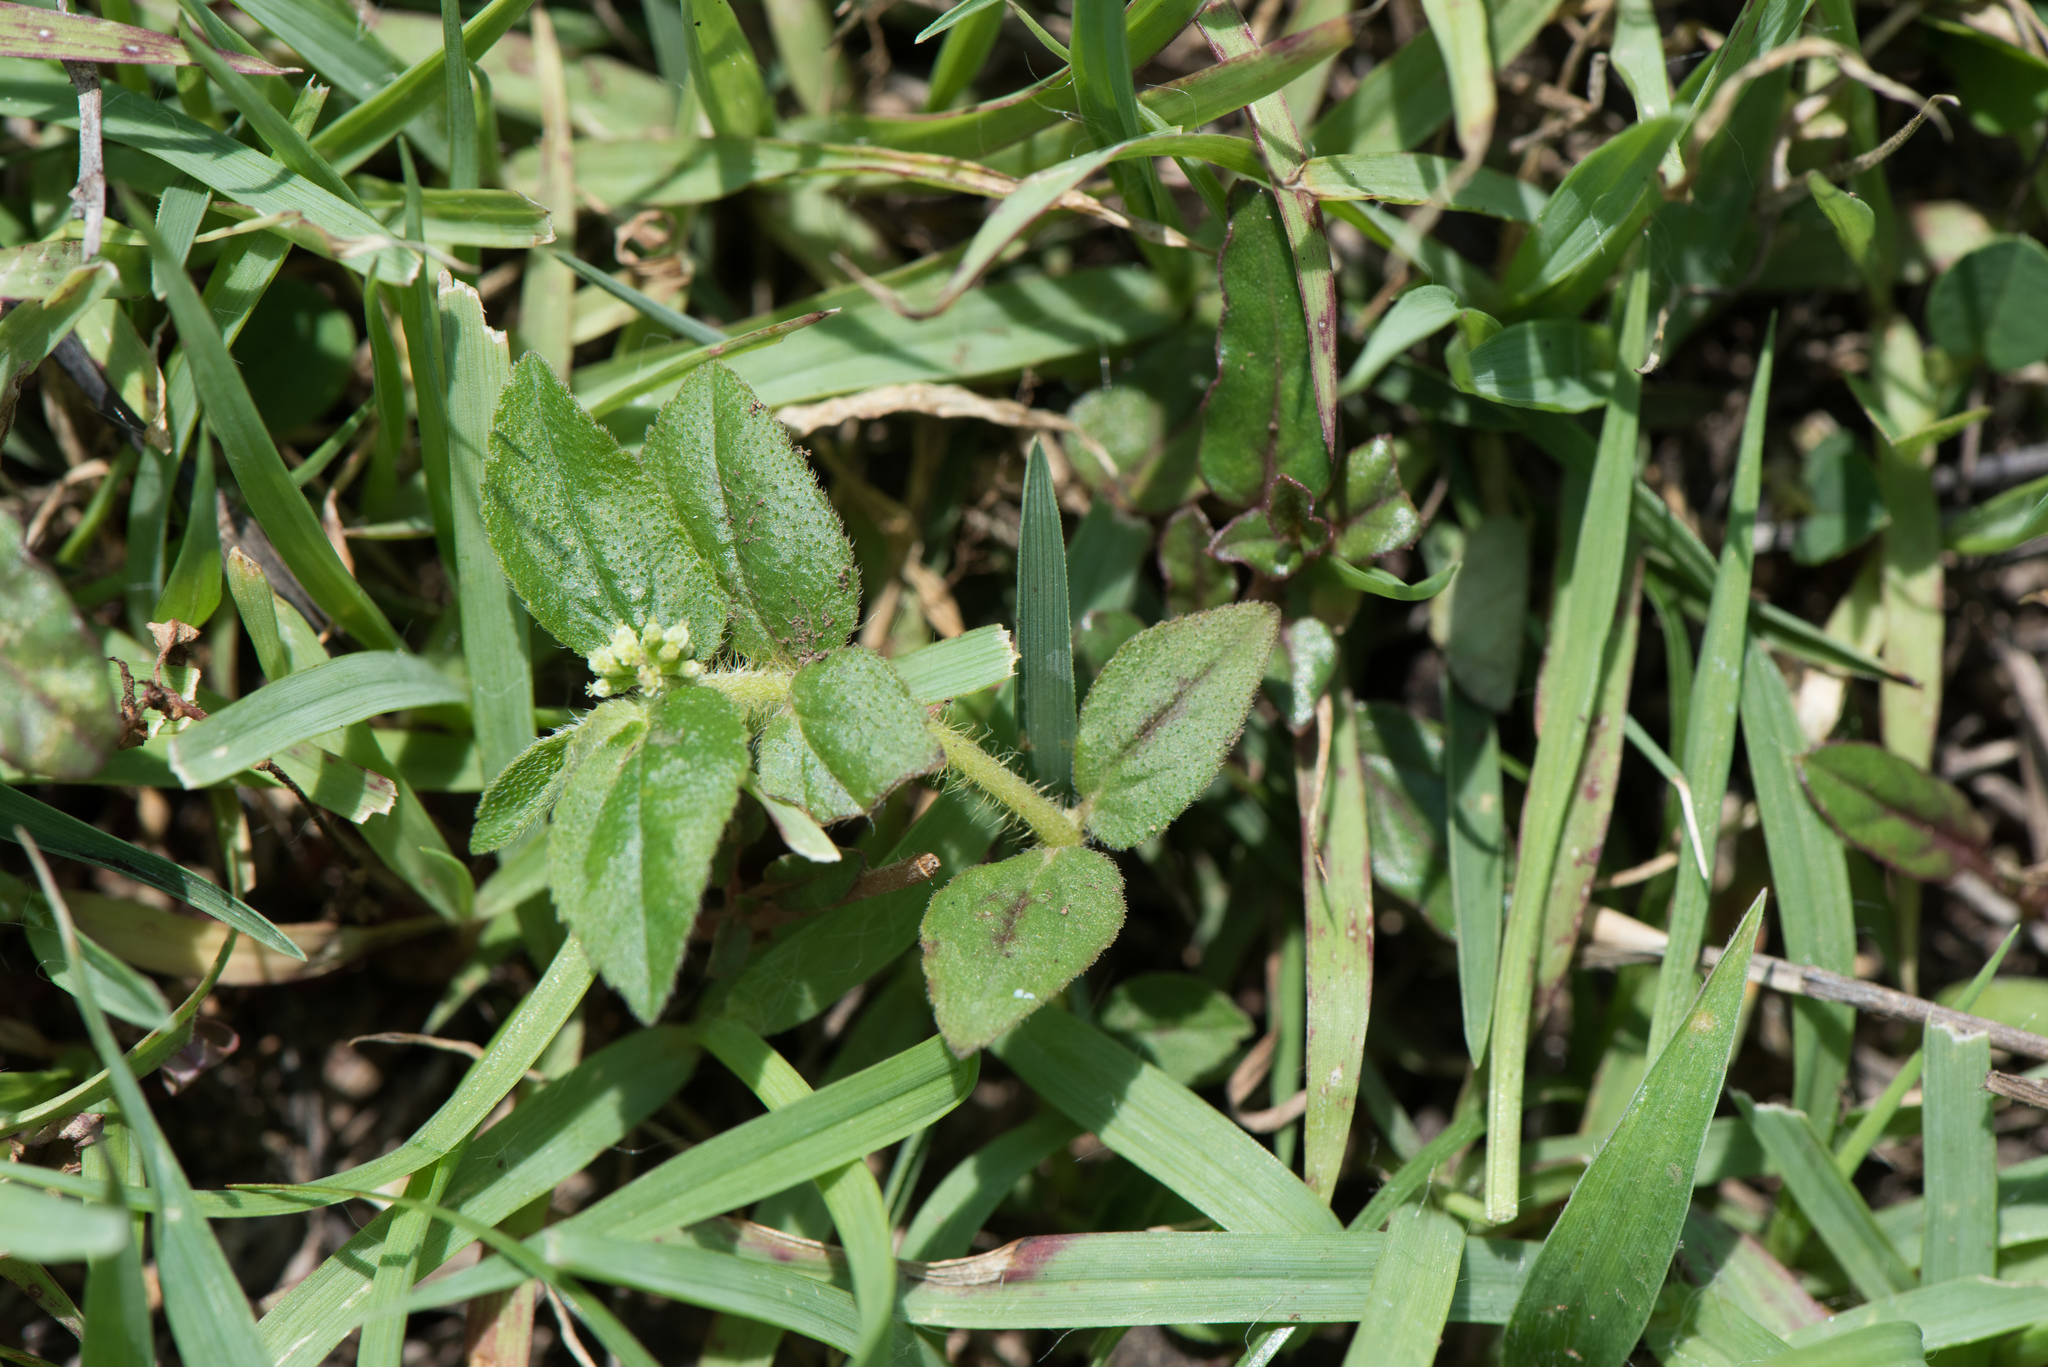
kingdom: Plantae
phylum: Tracheophyta
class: Magnoliopsida
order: Malpighiales
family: Euphorbiaceae
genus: Euphorbia
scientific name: Euphorbia hirta
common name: Pillpod sandmat
